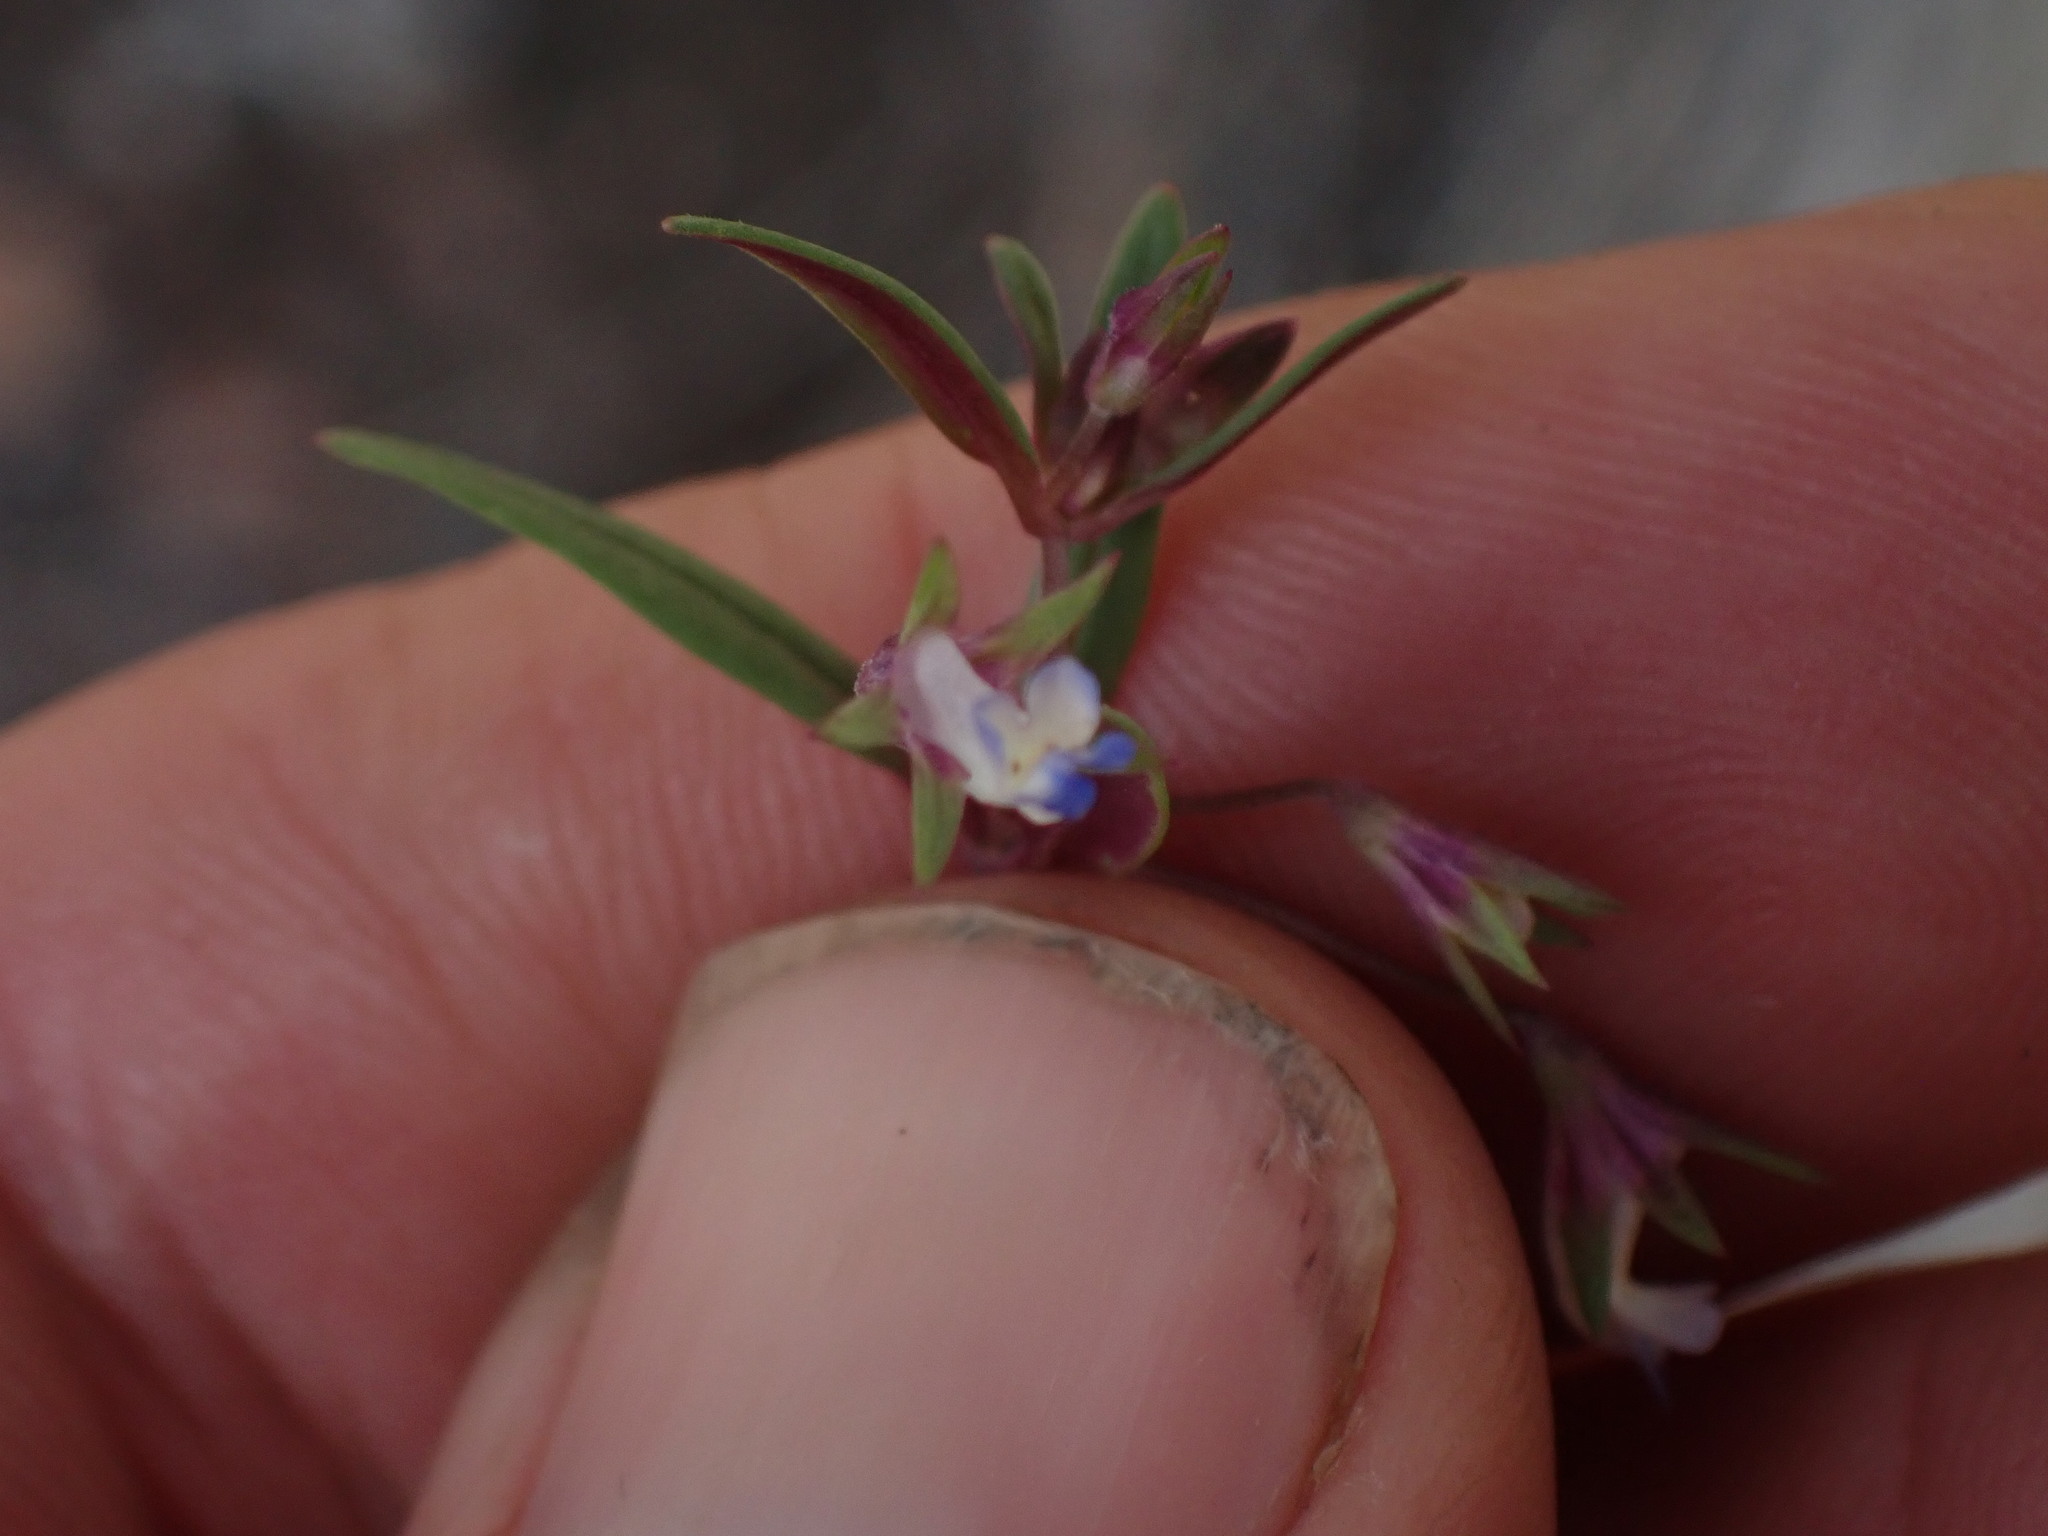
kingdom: Plantae
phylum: Tracheophyta
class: Magnoliopsida
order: Lamiales
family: Plantaginaceae
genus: Collinsia
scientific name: Collinsia parviflora
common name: Blue-lips
